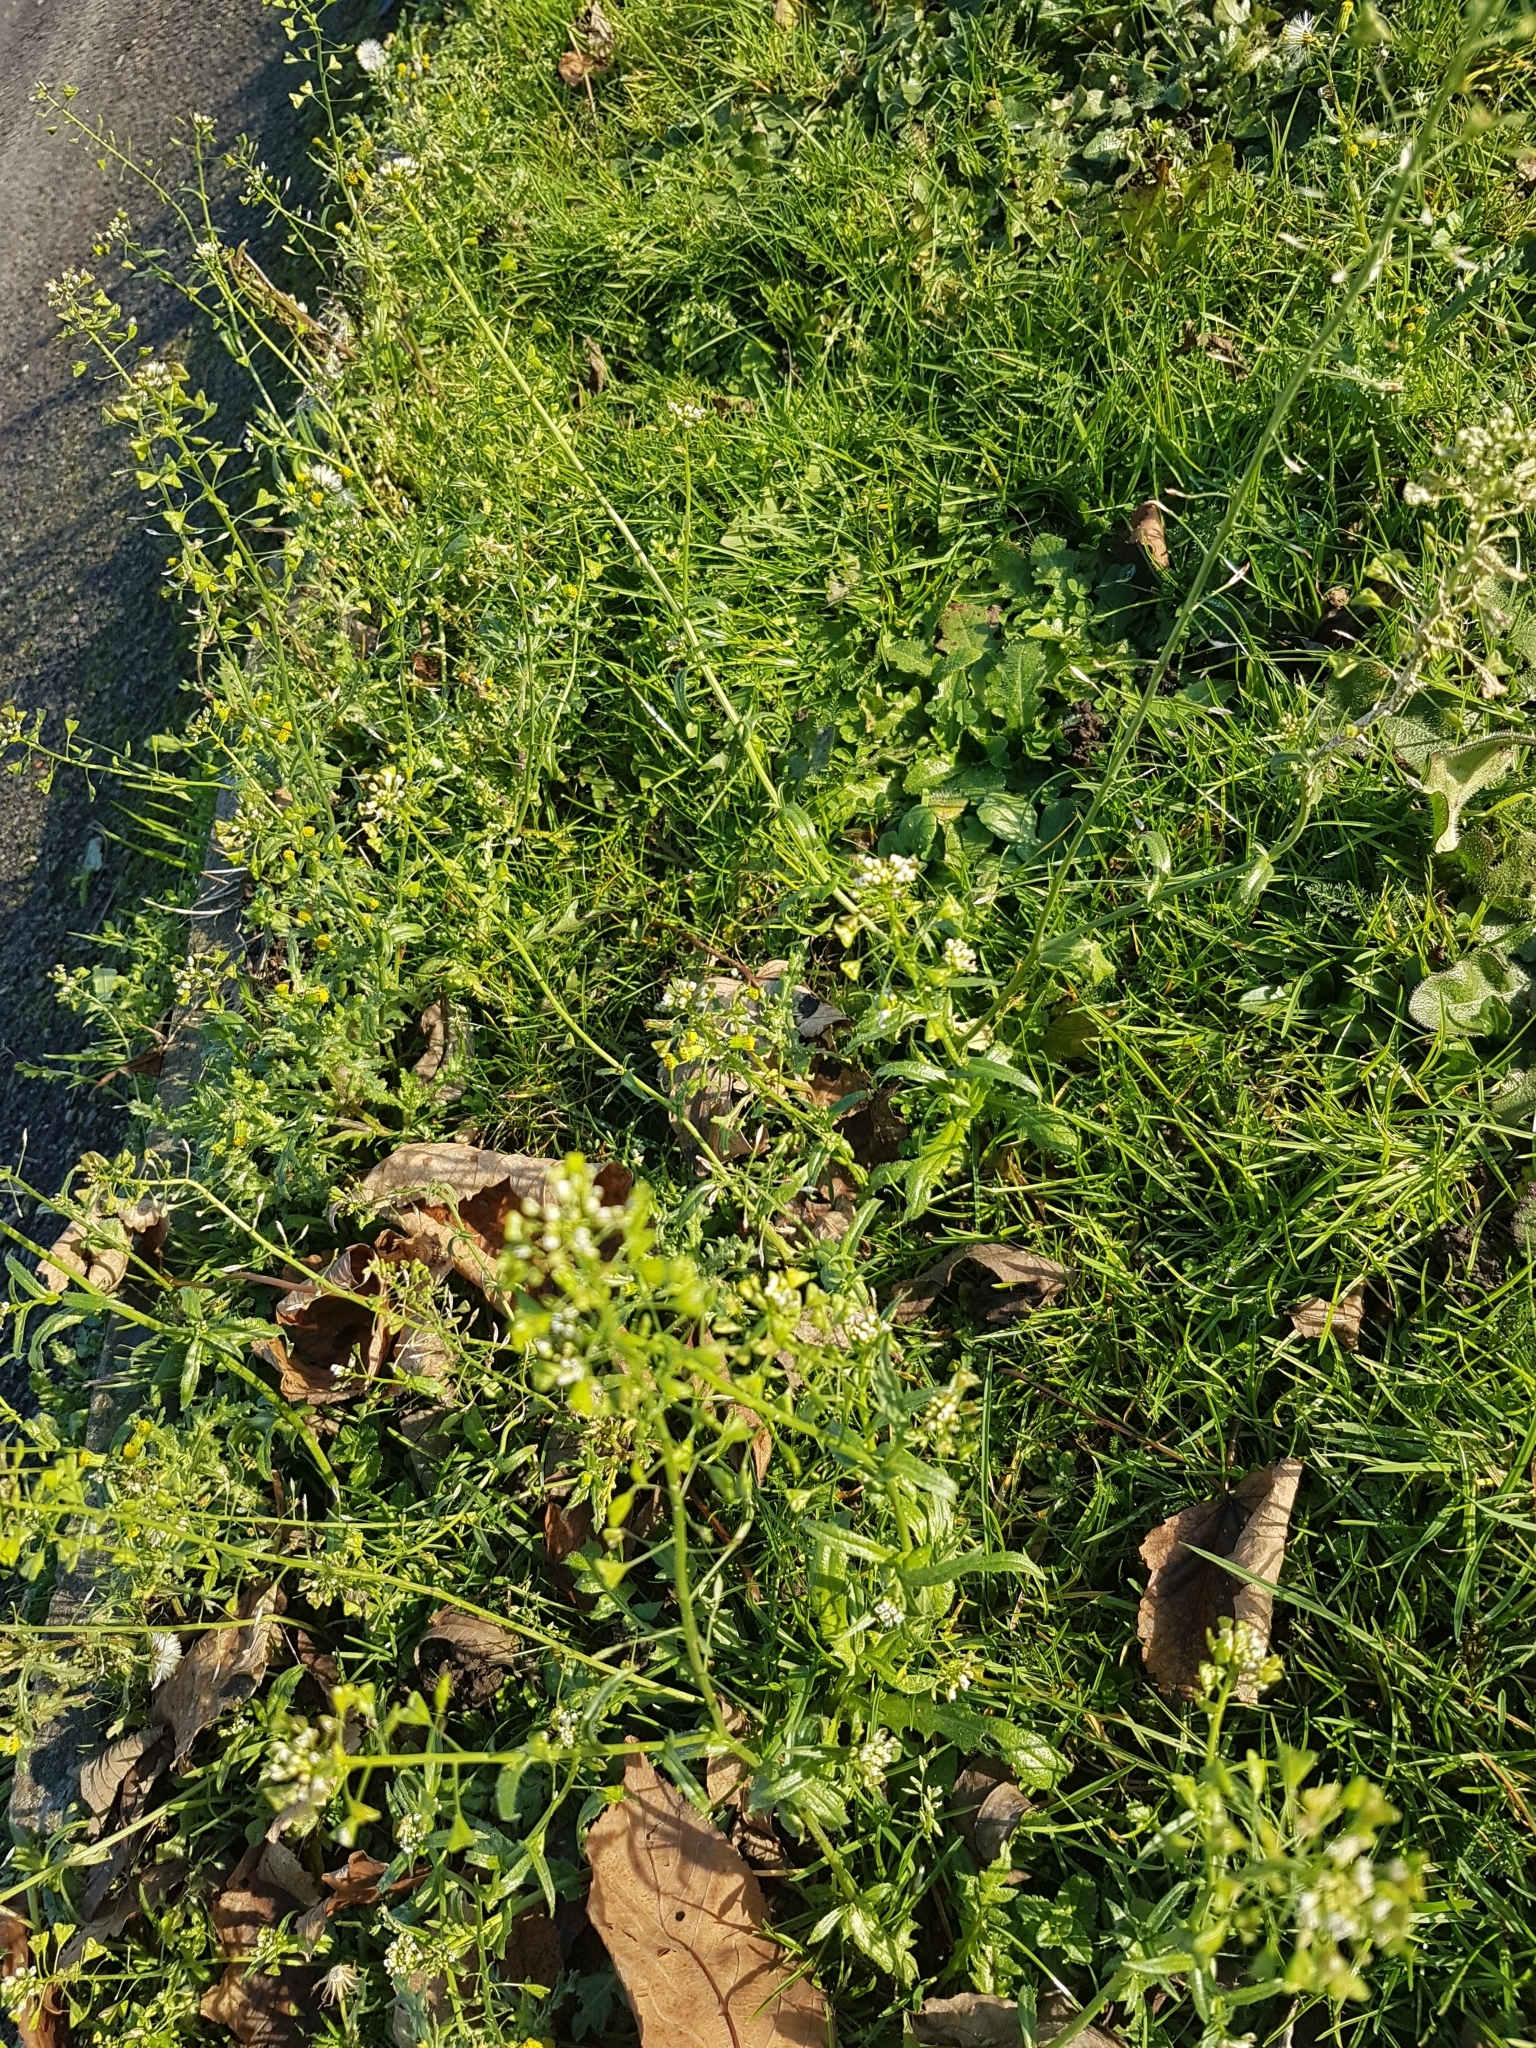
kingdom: Plantae
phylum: Tracheophyta
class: Magnoliopsida
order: Brassicales
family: Brassicaceae
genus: Capsella
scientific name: Capsella bursa-pastoris
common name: Shepherd's purse
